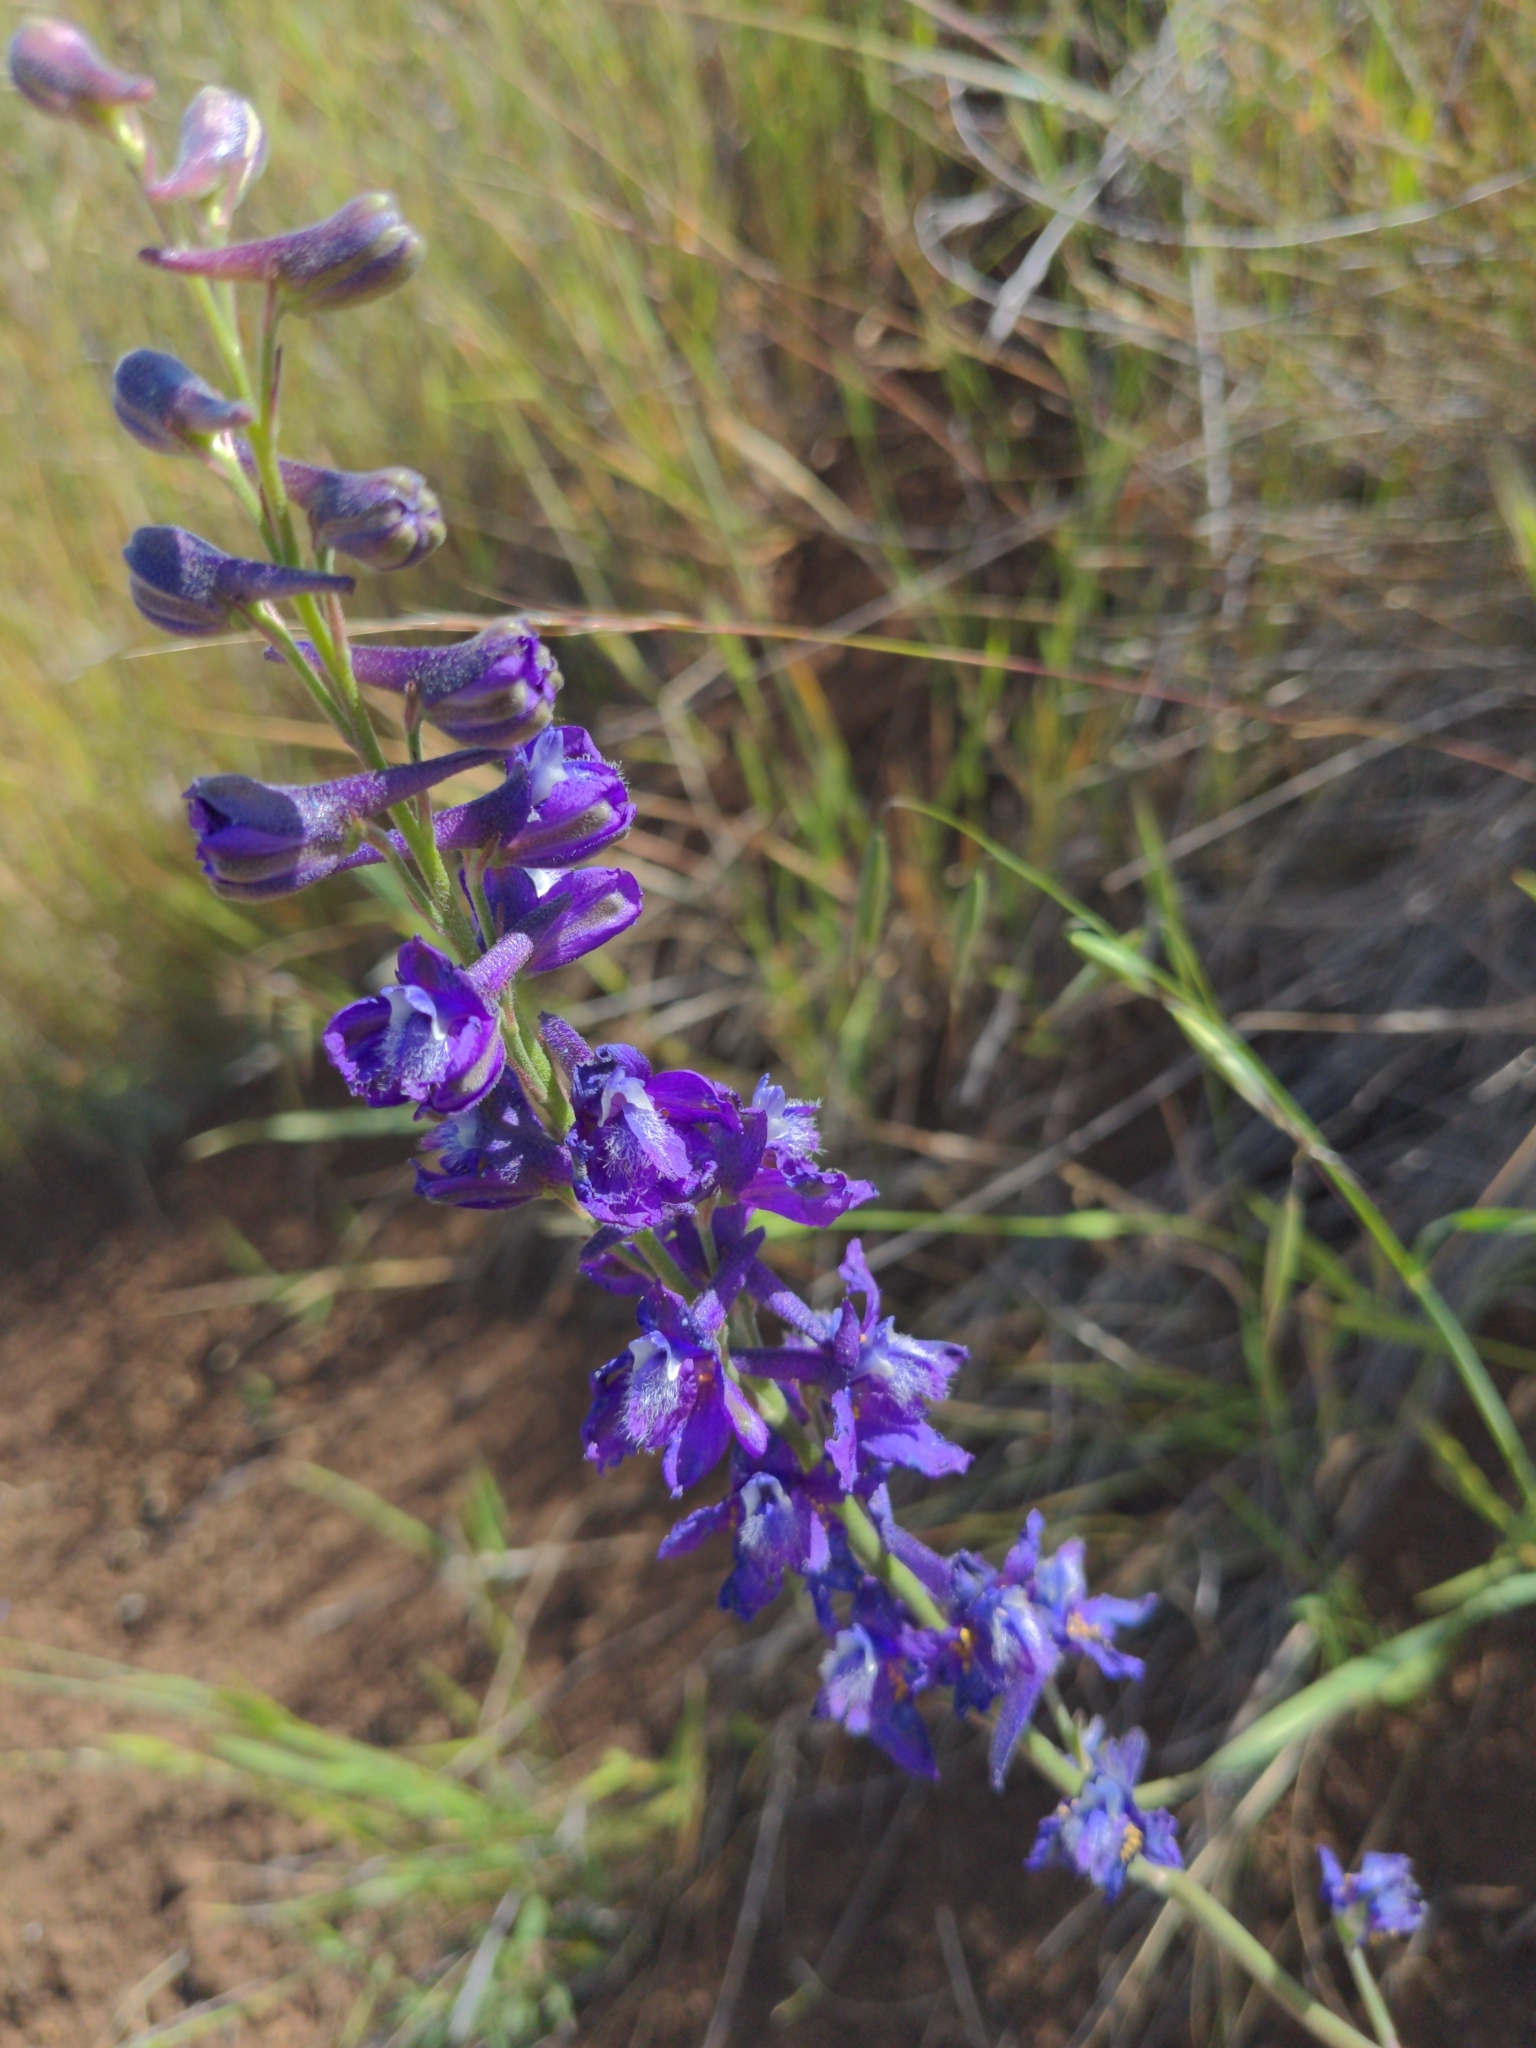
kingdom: Plantae
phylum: Tracheophyta
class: Magnoliopsida
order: Ranunculales
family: Ranunculaceae
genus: Delphinium
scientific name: Delphinium hesperium
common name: Western larkspur
